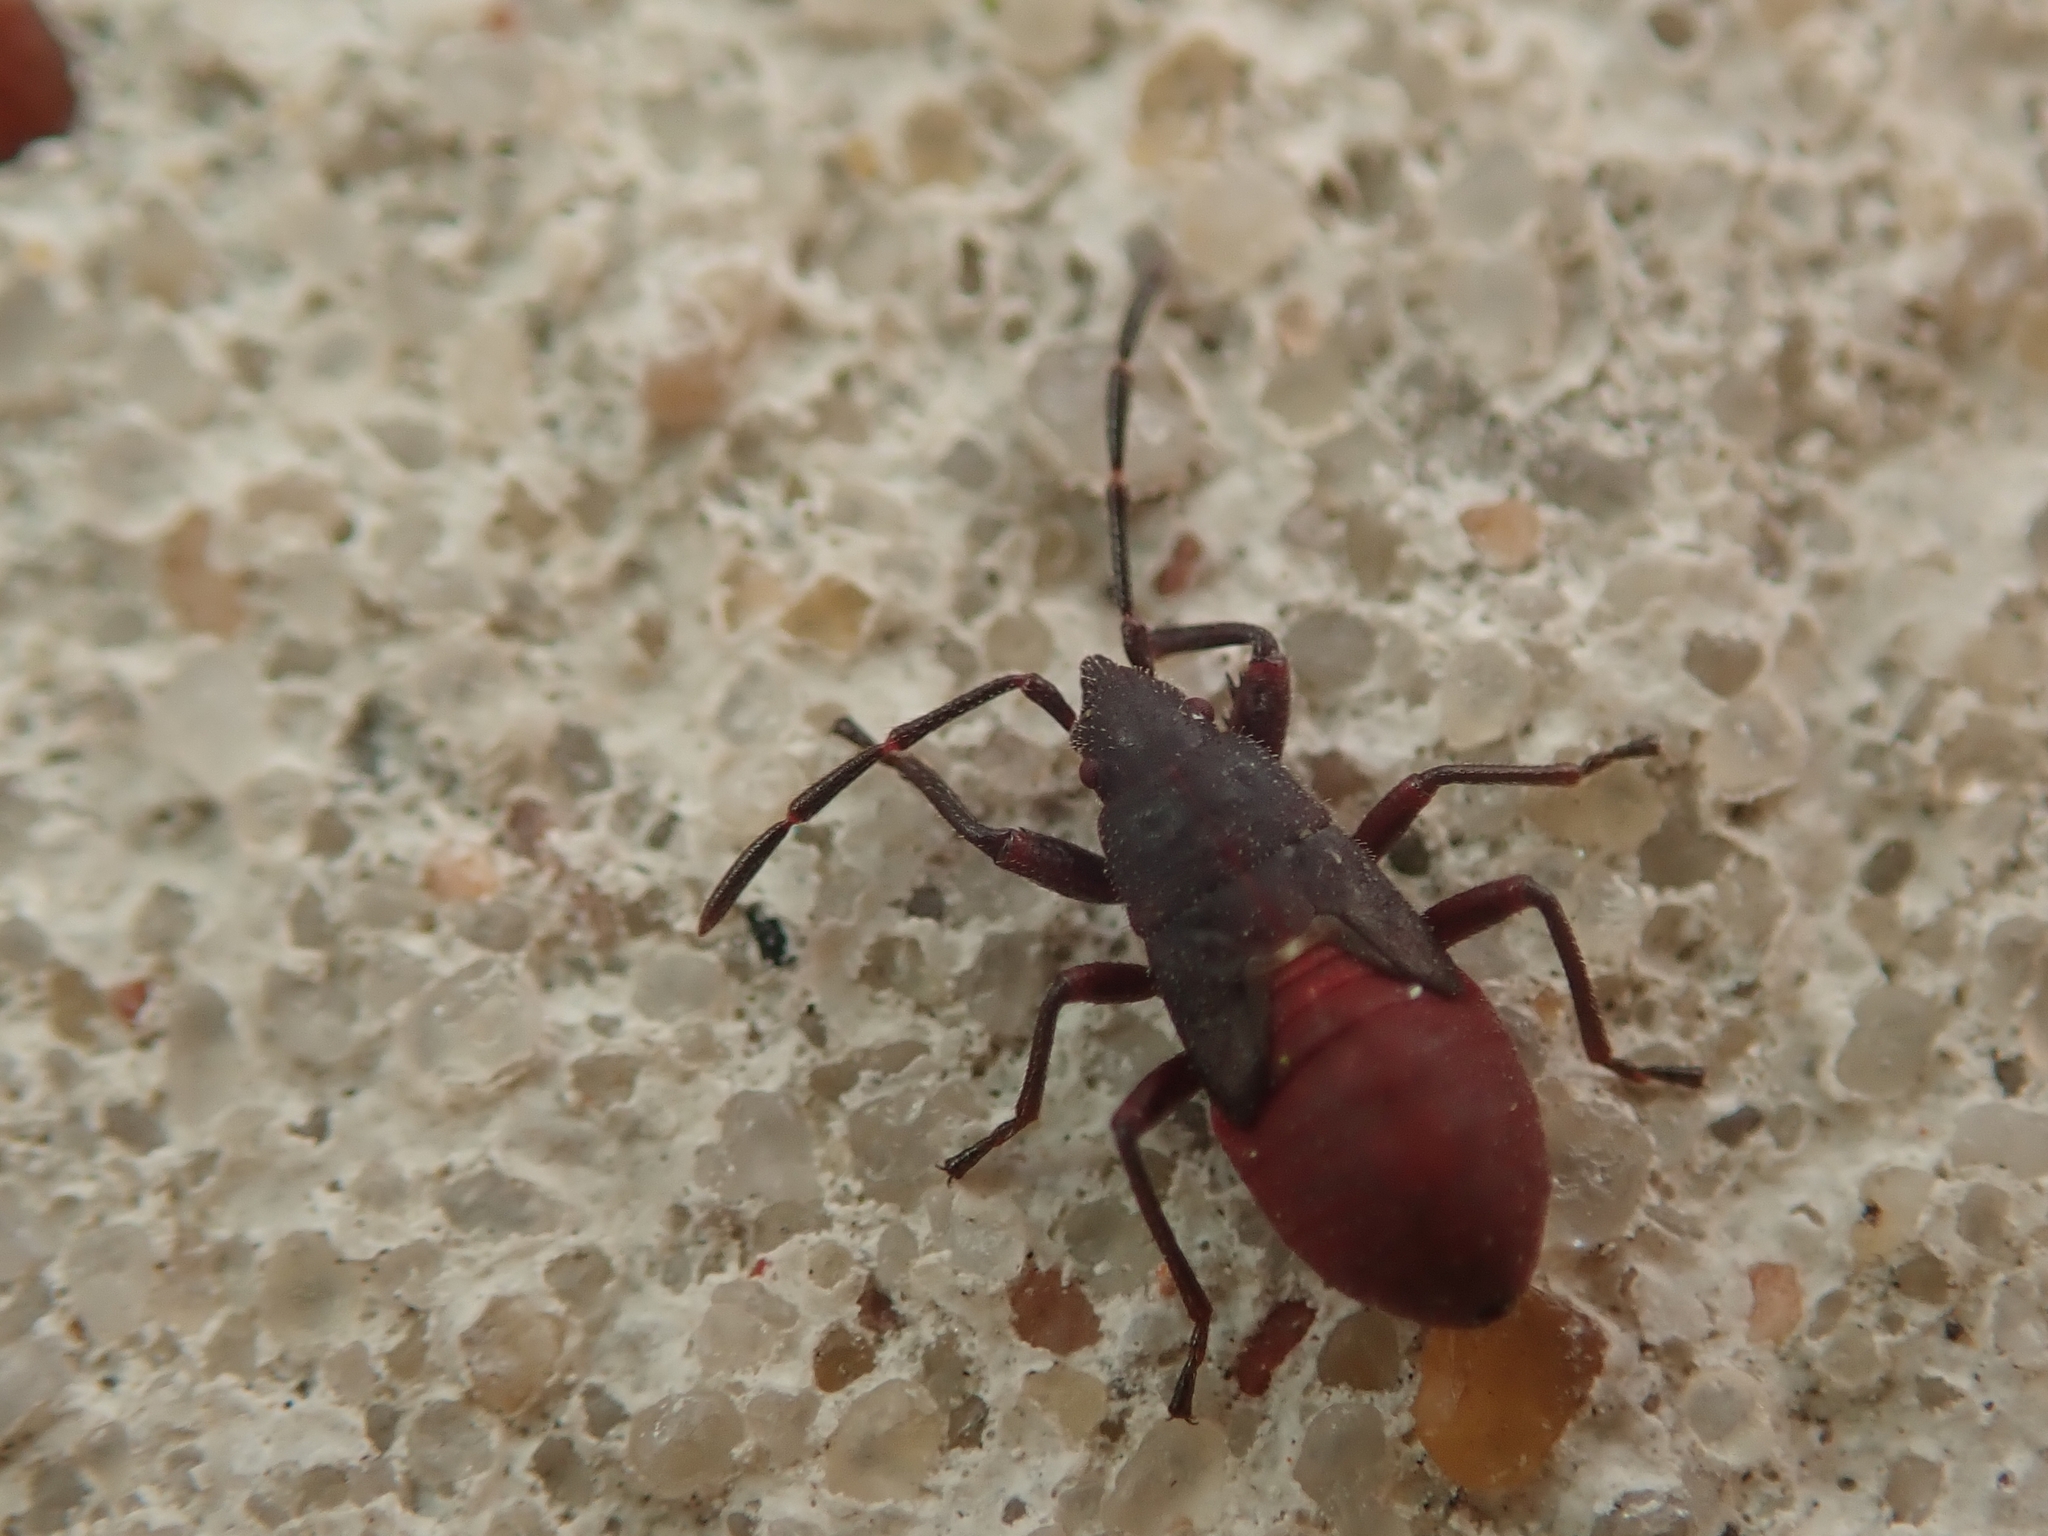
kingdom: Animalia
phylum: Arthropoda
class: Insecta
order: Hemiptera
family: Oxycarenidae
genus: Oxycarenus
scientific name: Oxycarenus lavaterae
